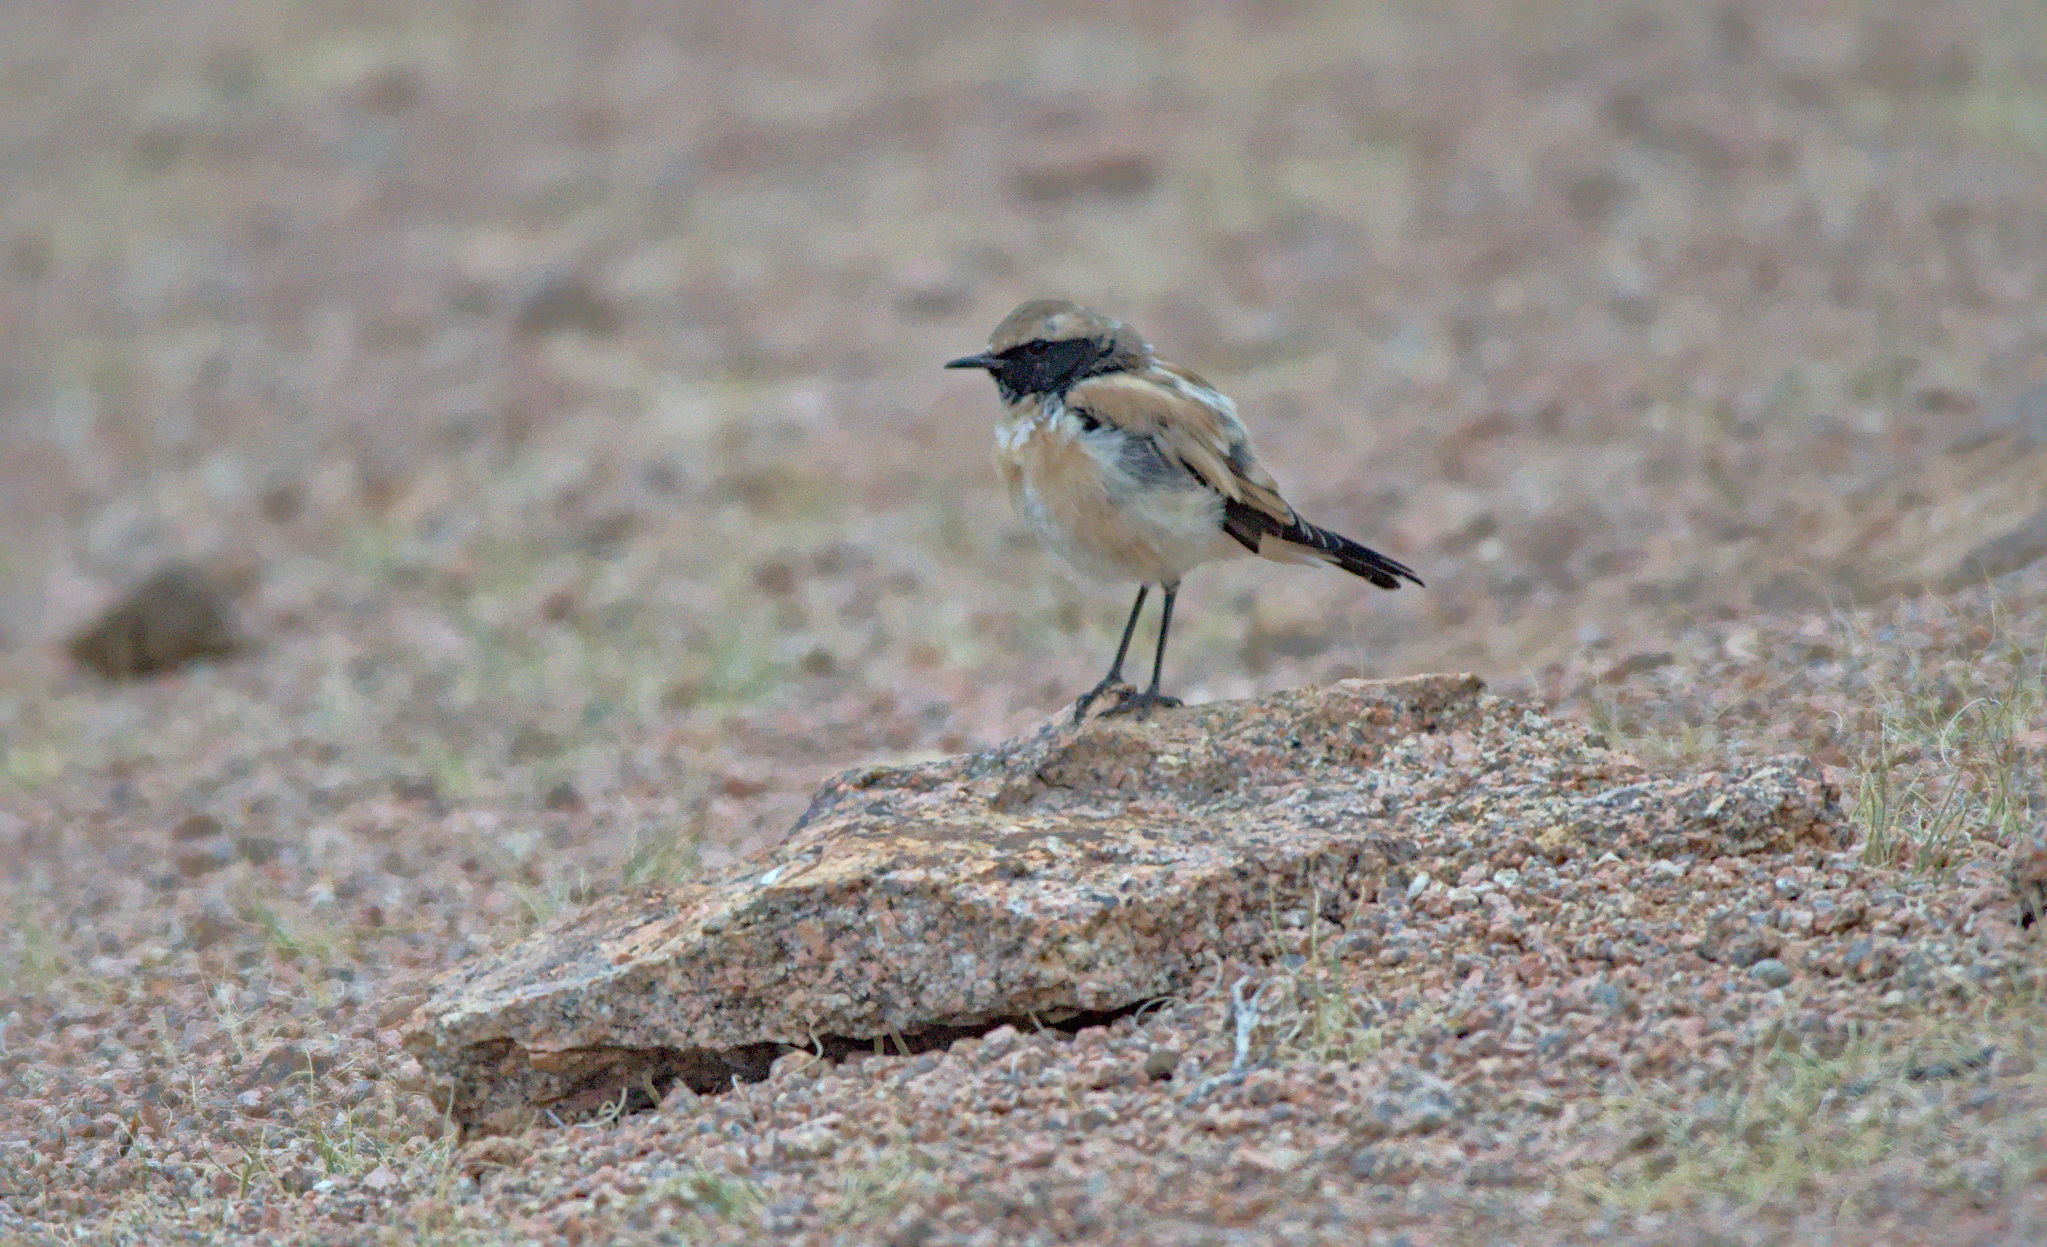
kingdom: Animalia
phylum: Chordata
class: Aves
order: Passeriformes
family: Muscicapidae
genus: Oenanthe
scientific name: Oenanthe deserti
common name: Desert wheatear
